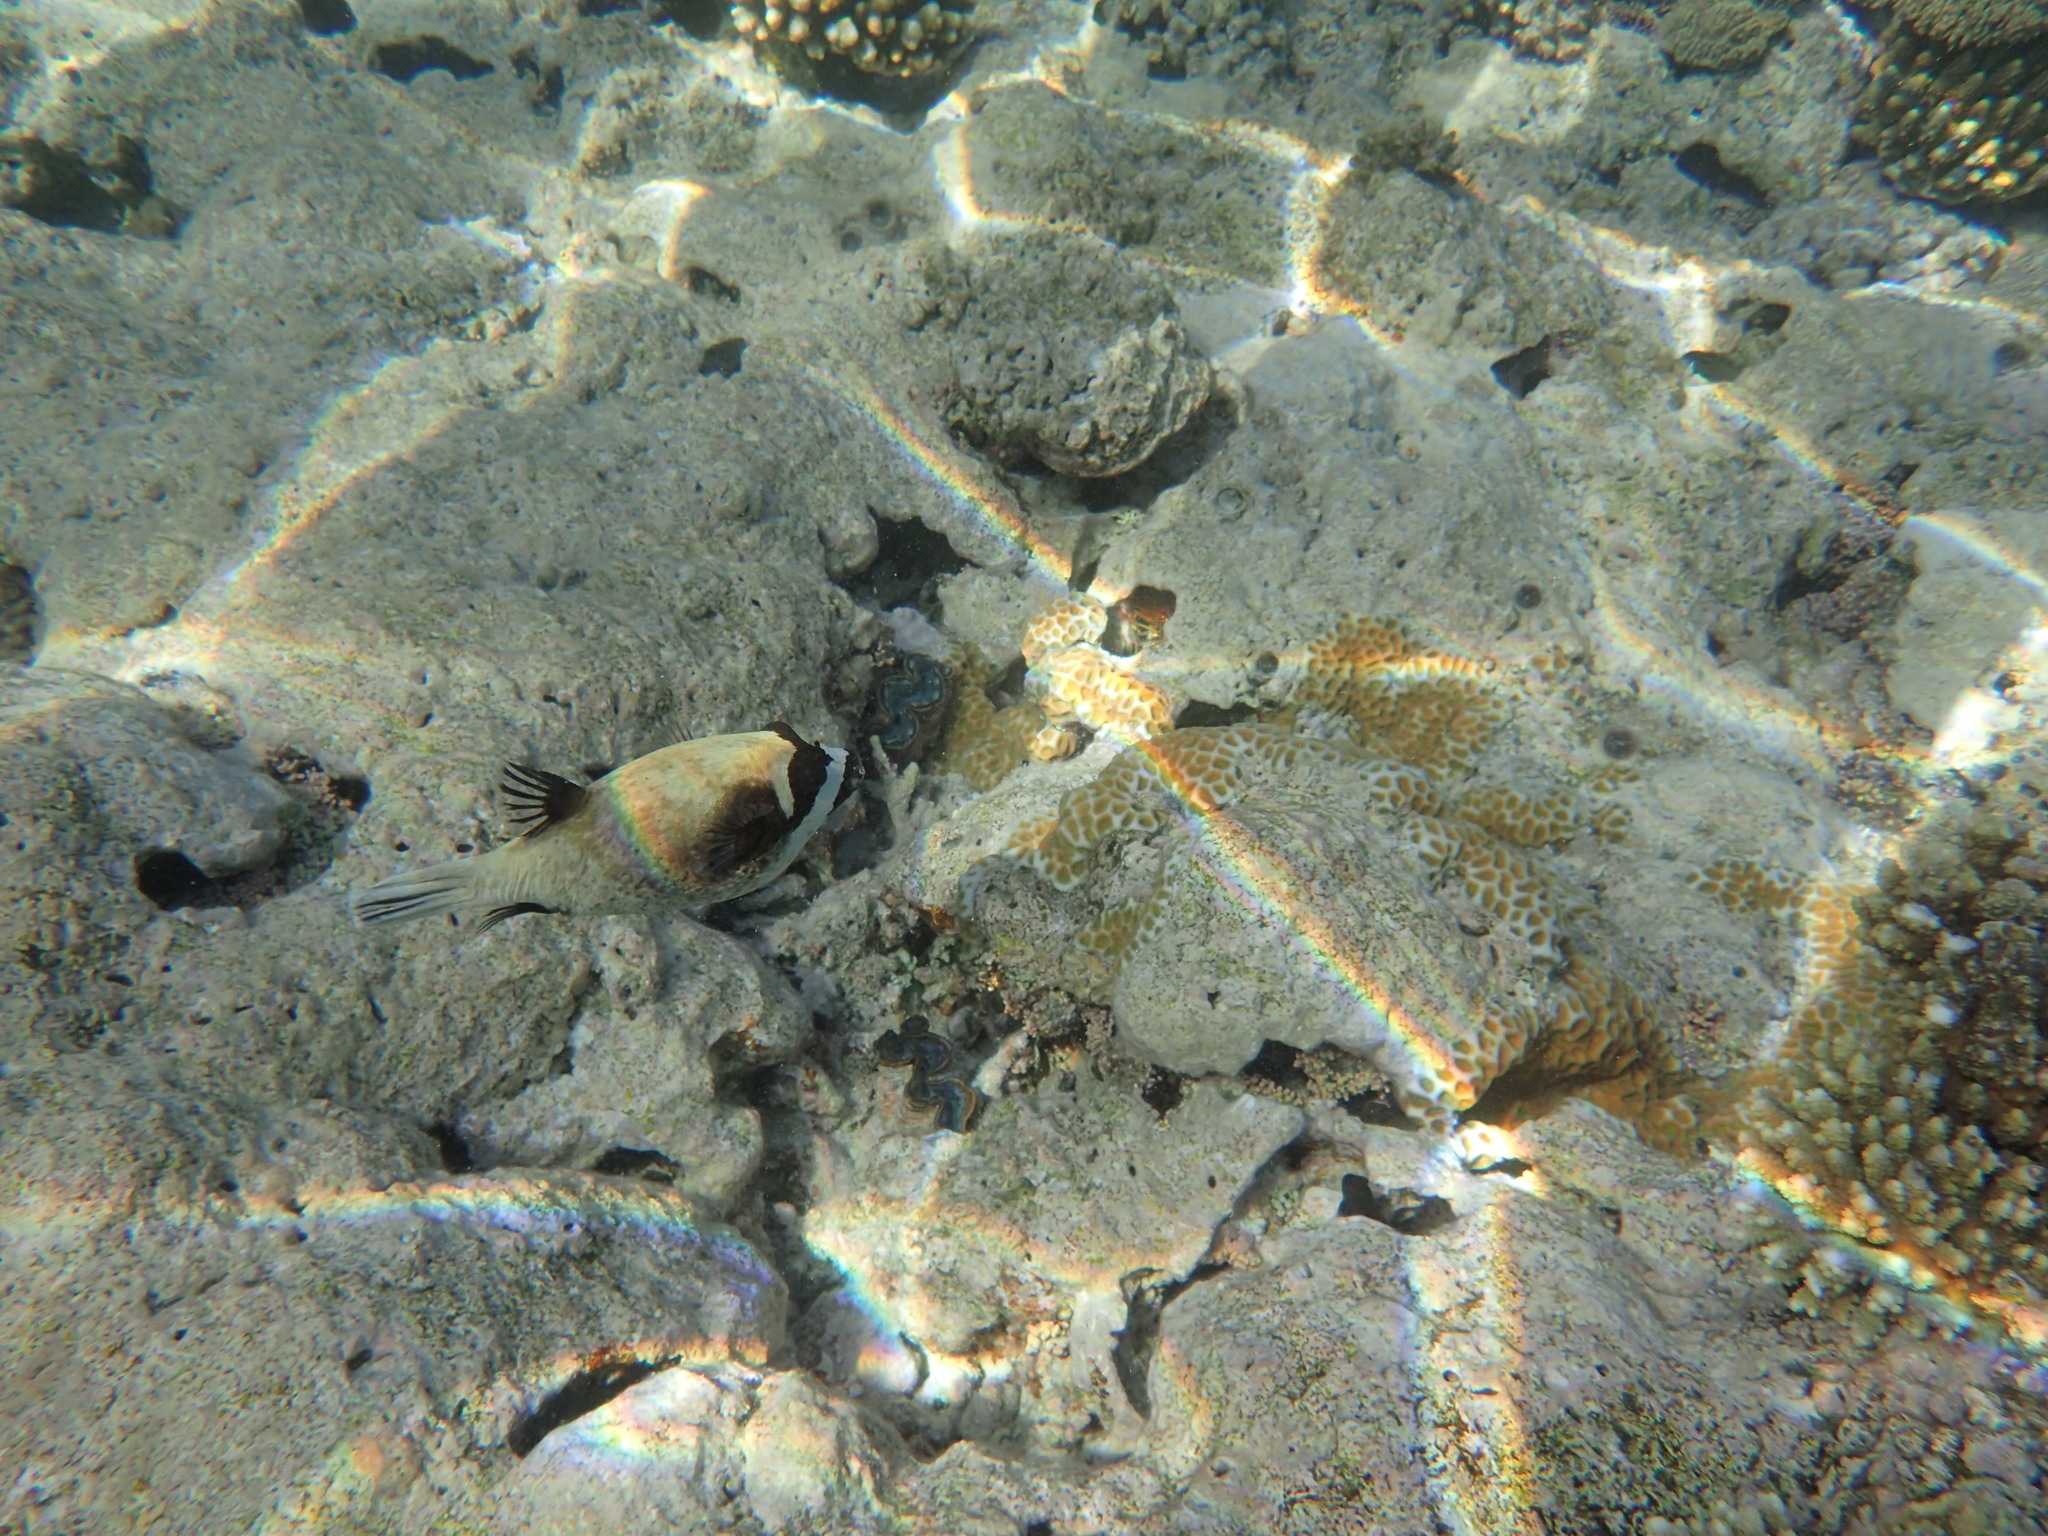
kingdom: Animalia
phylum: Chordata
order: Tetraodontiformes
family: Tetraodontidae
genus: Arothron
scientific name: Arothron diadematus
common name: Masked puffer
